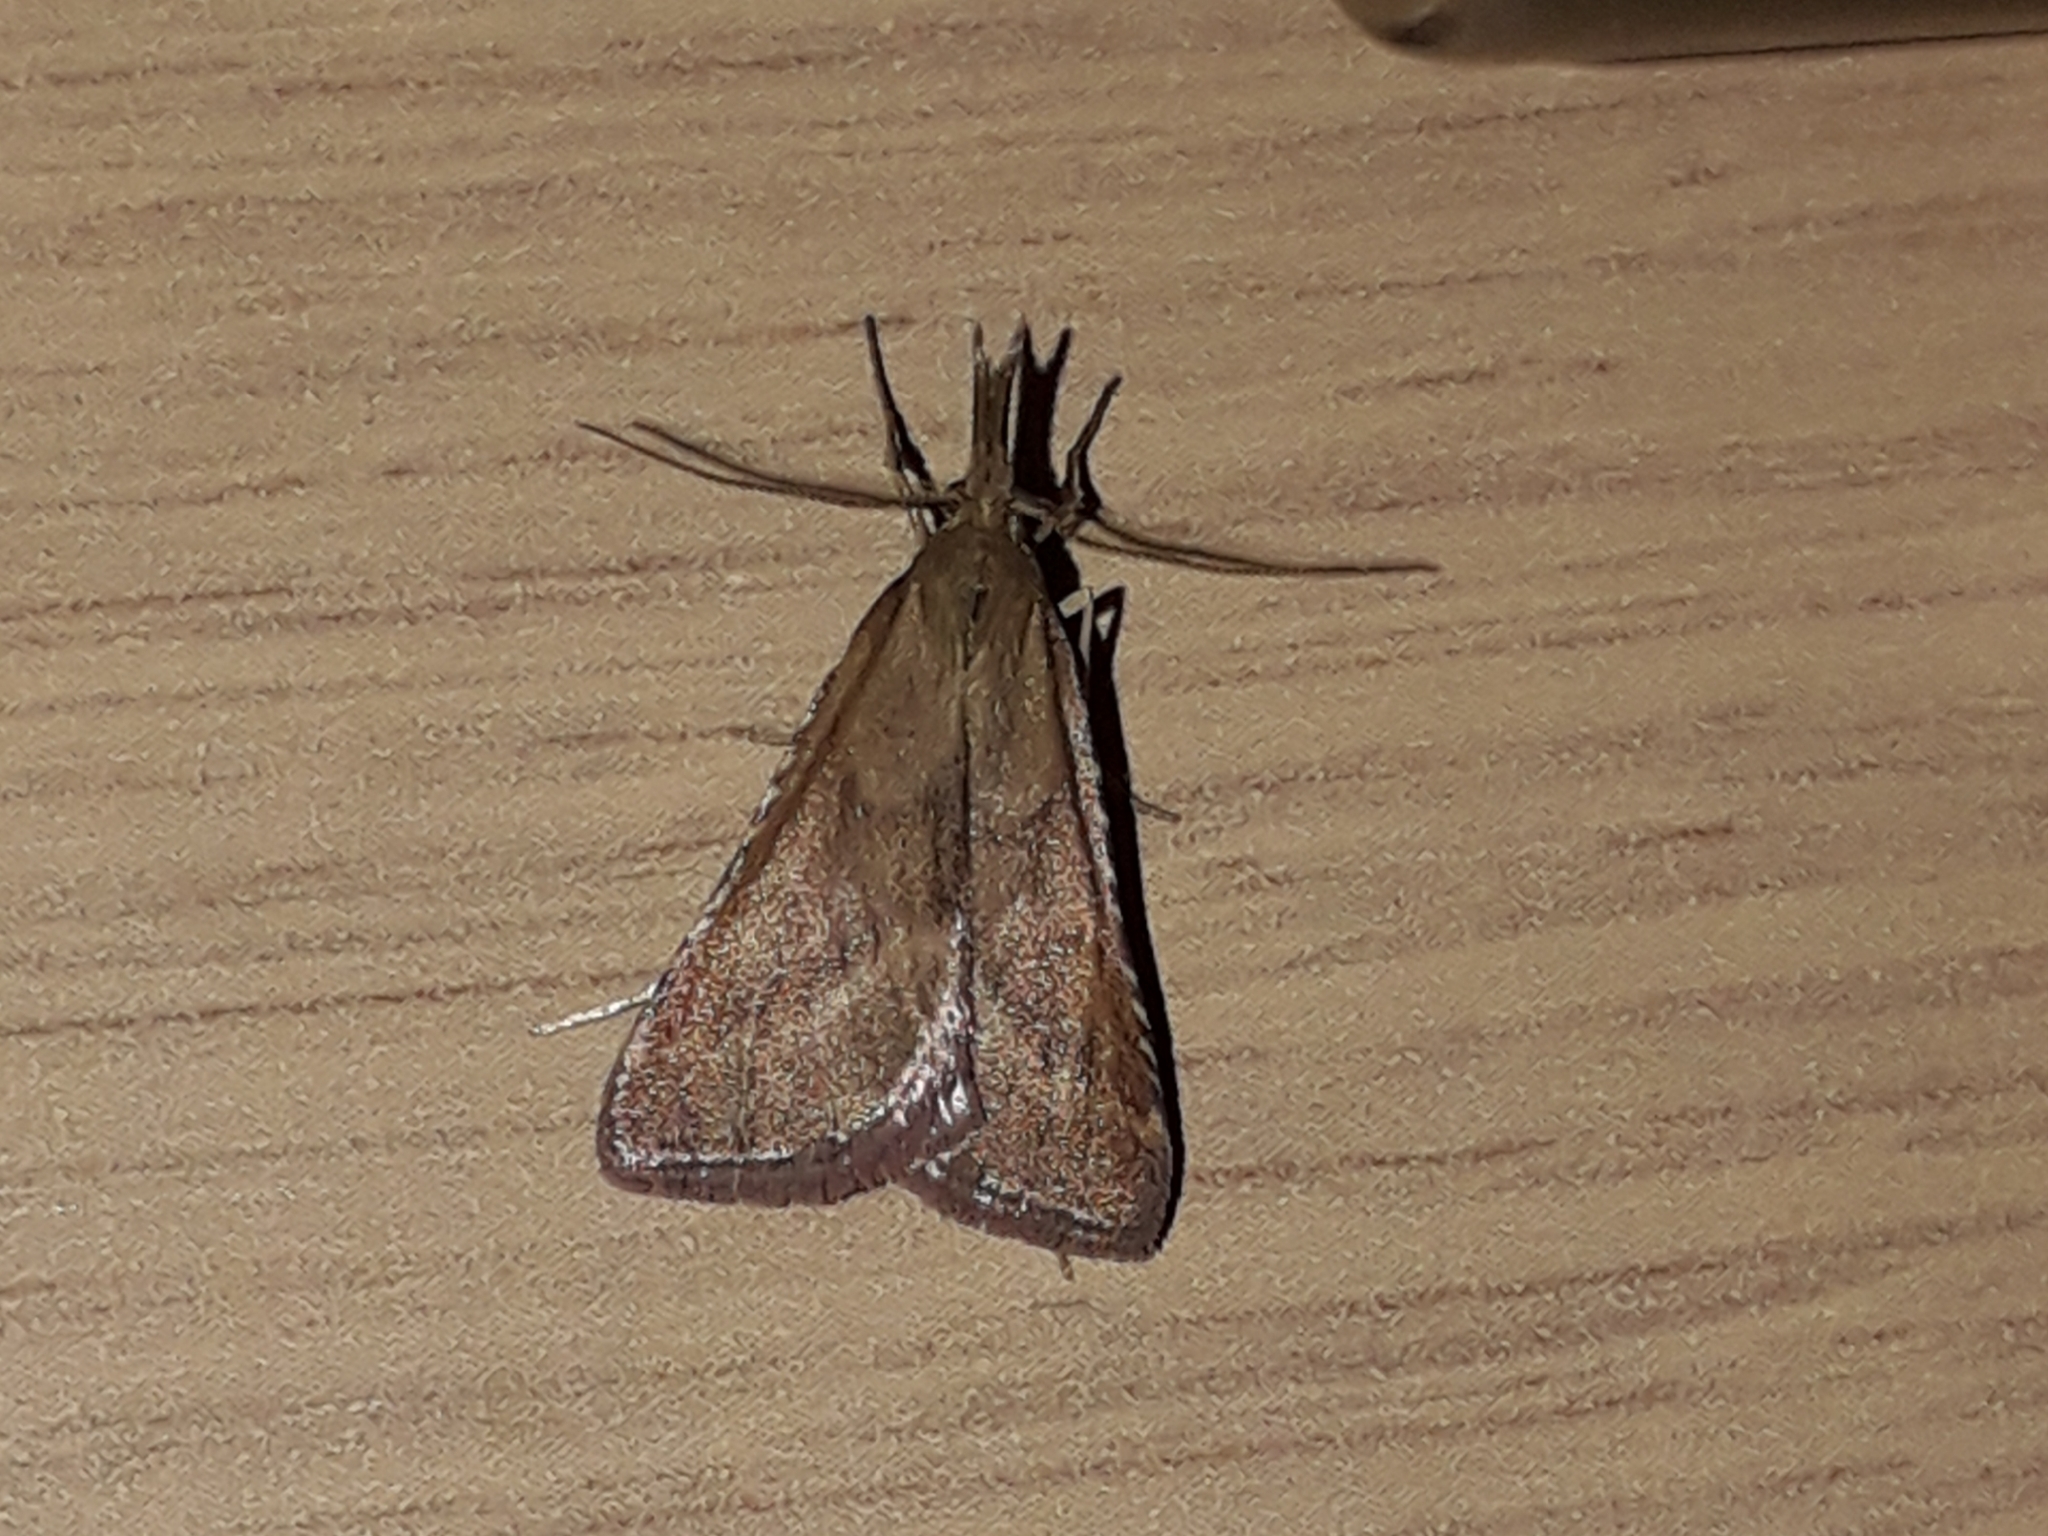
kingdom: Animalia
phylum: Arthropoda
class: Insecta
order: Lepidoptera
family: Pyralidae
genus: Synaphe
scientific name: Synaphe punctalis
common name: Long-legged tabby
